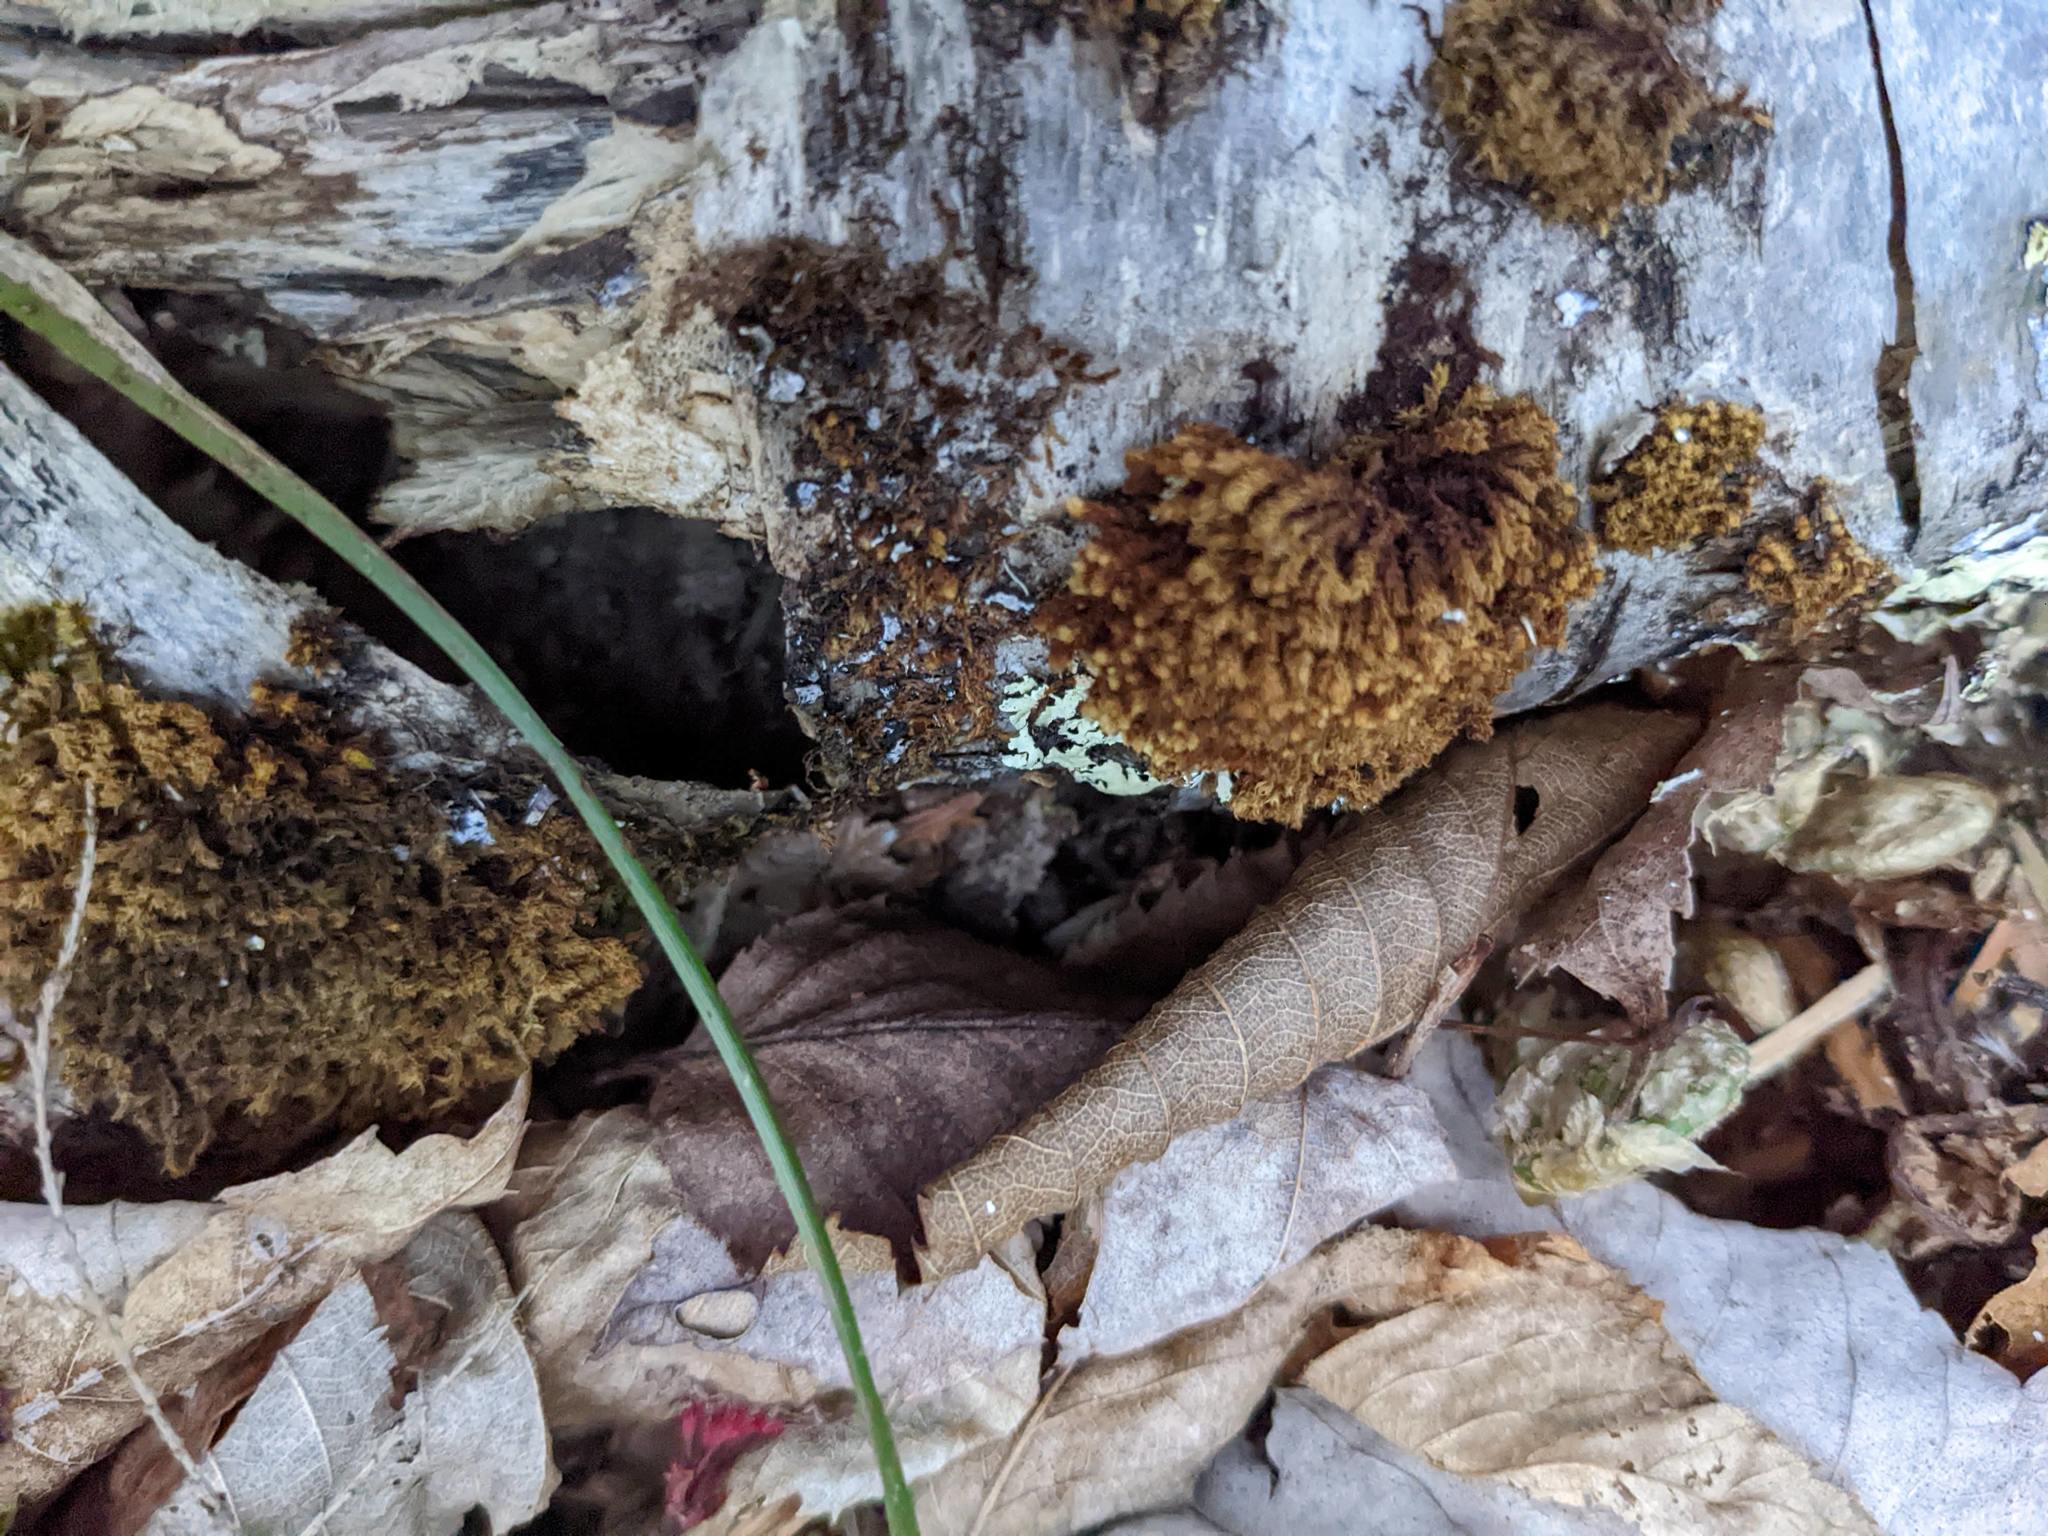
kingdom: Plantae
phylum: Bryophyta
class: Bryopsida
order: Orthotrichales
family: Orthotrichaceae
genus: Ulota
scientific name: Ulota crispa
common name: Crisped pincushion moss
